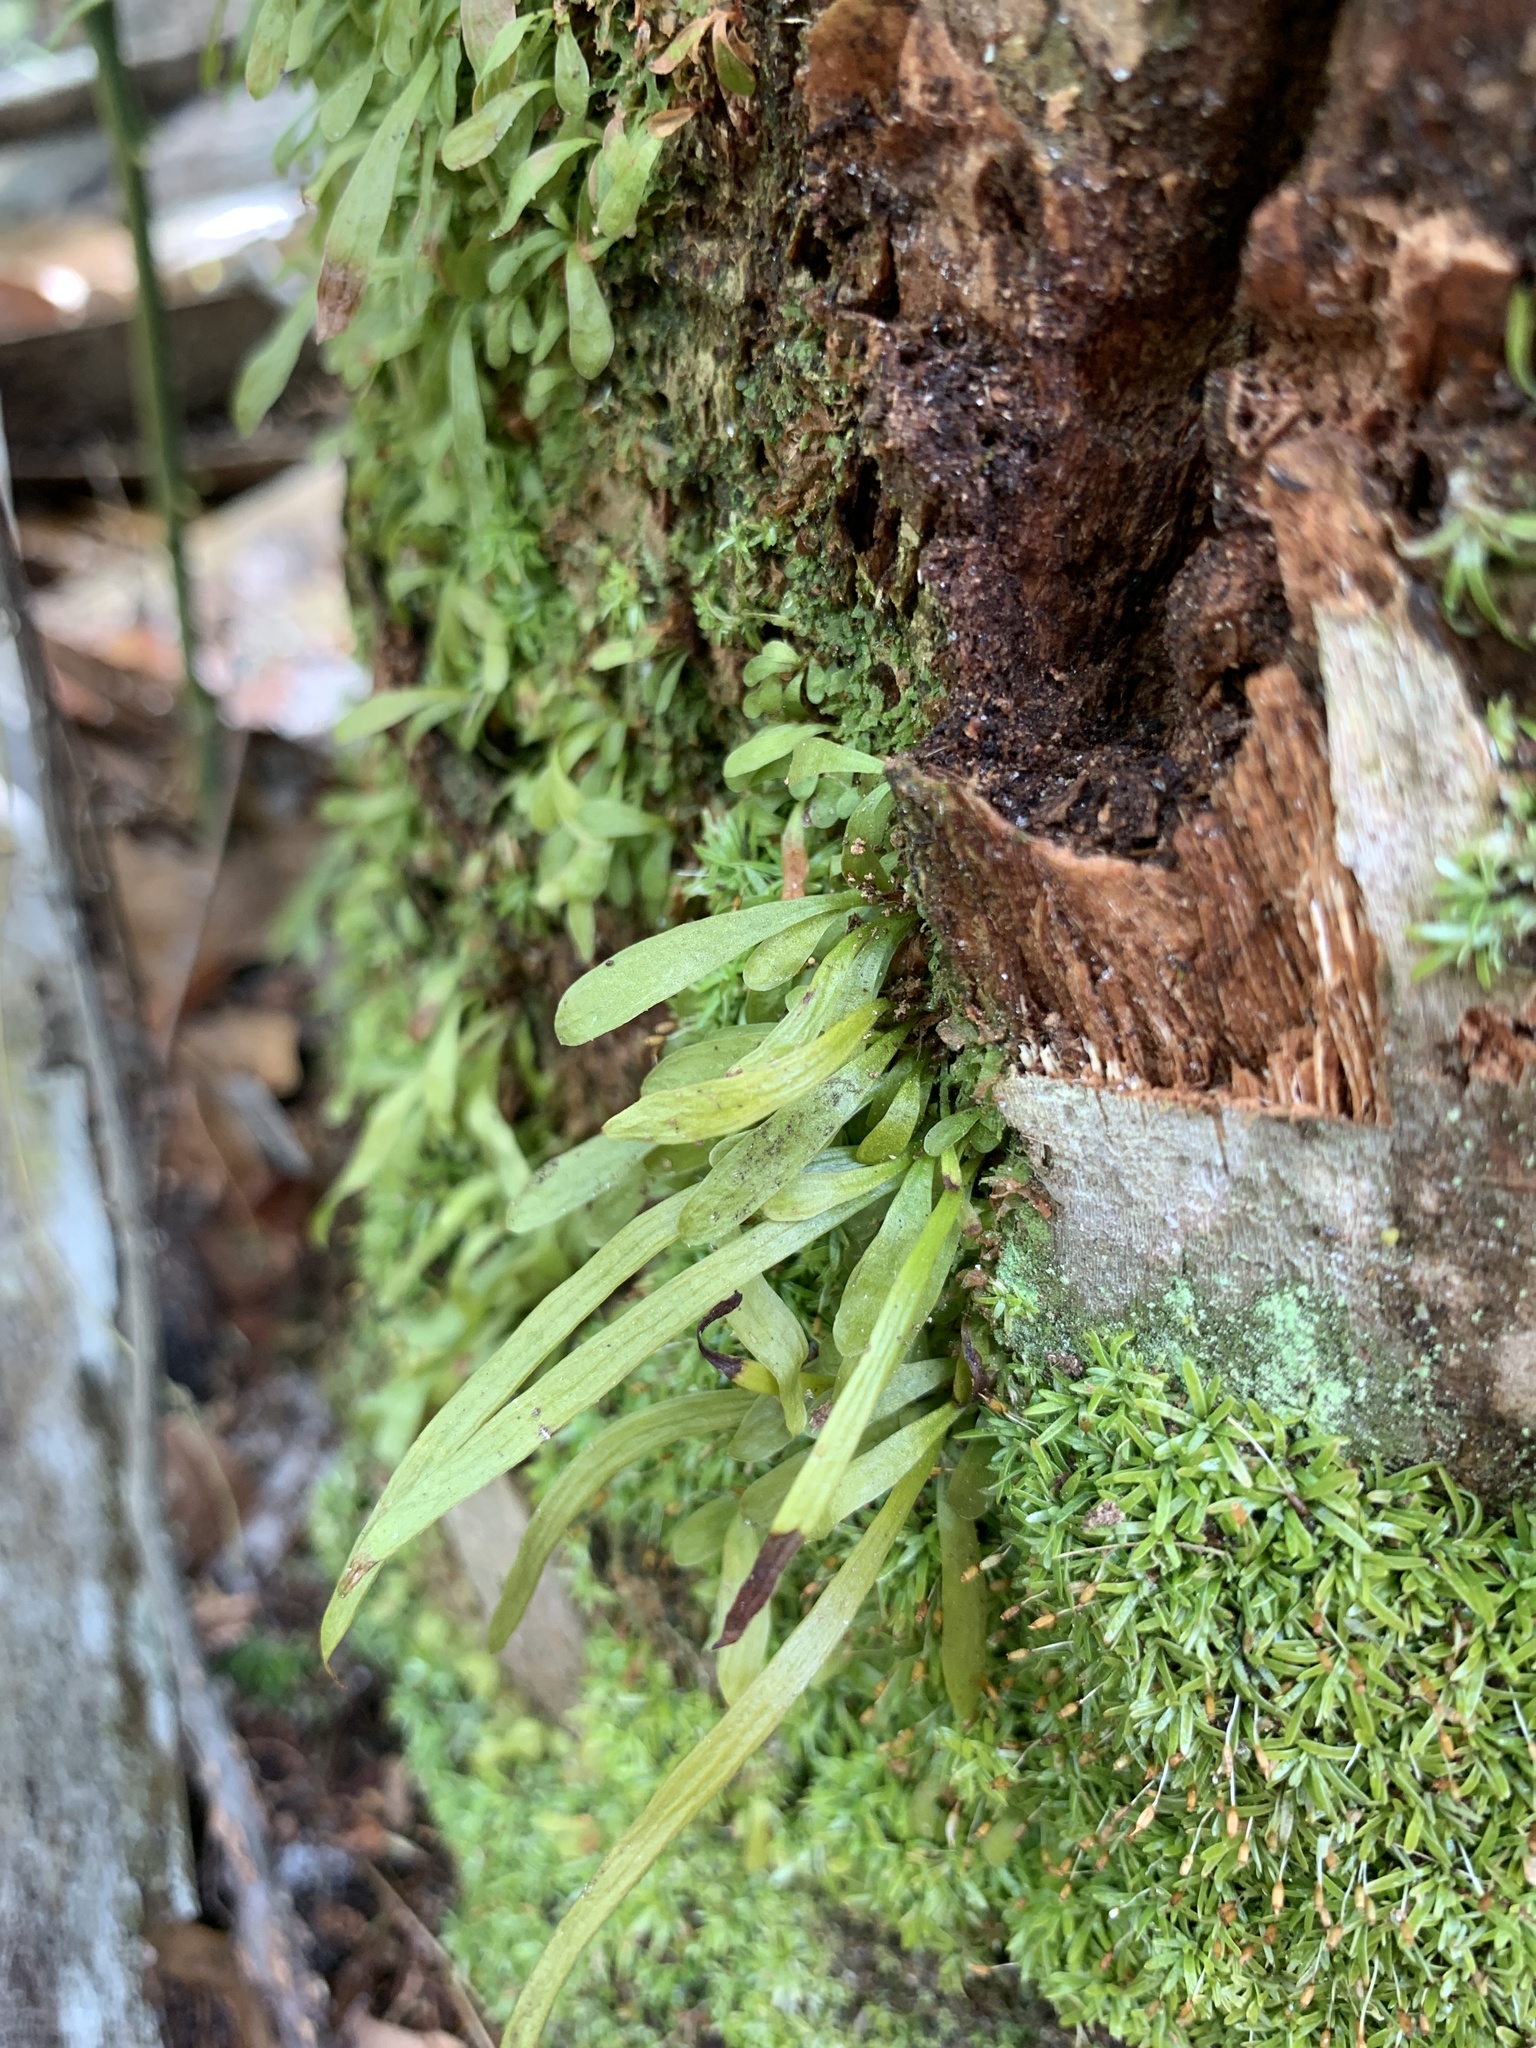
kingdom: Plantae
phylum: Tracheophyta
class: Polypodiopsida
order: Polypodiales
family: Pteridaceae
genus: Vittaria
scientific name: Vittaria lineata
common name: Shoestring fern
